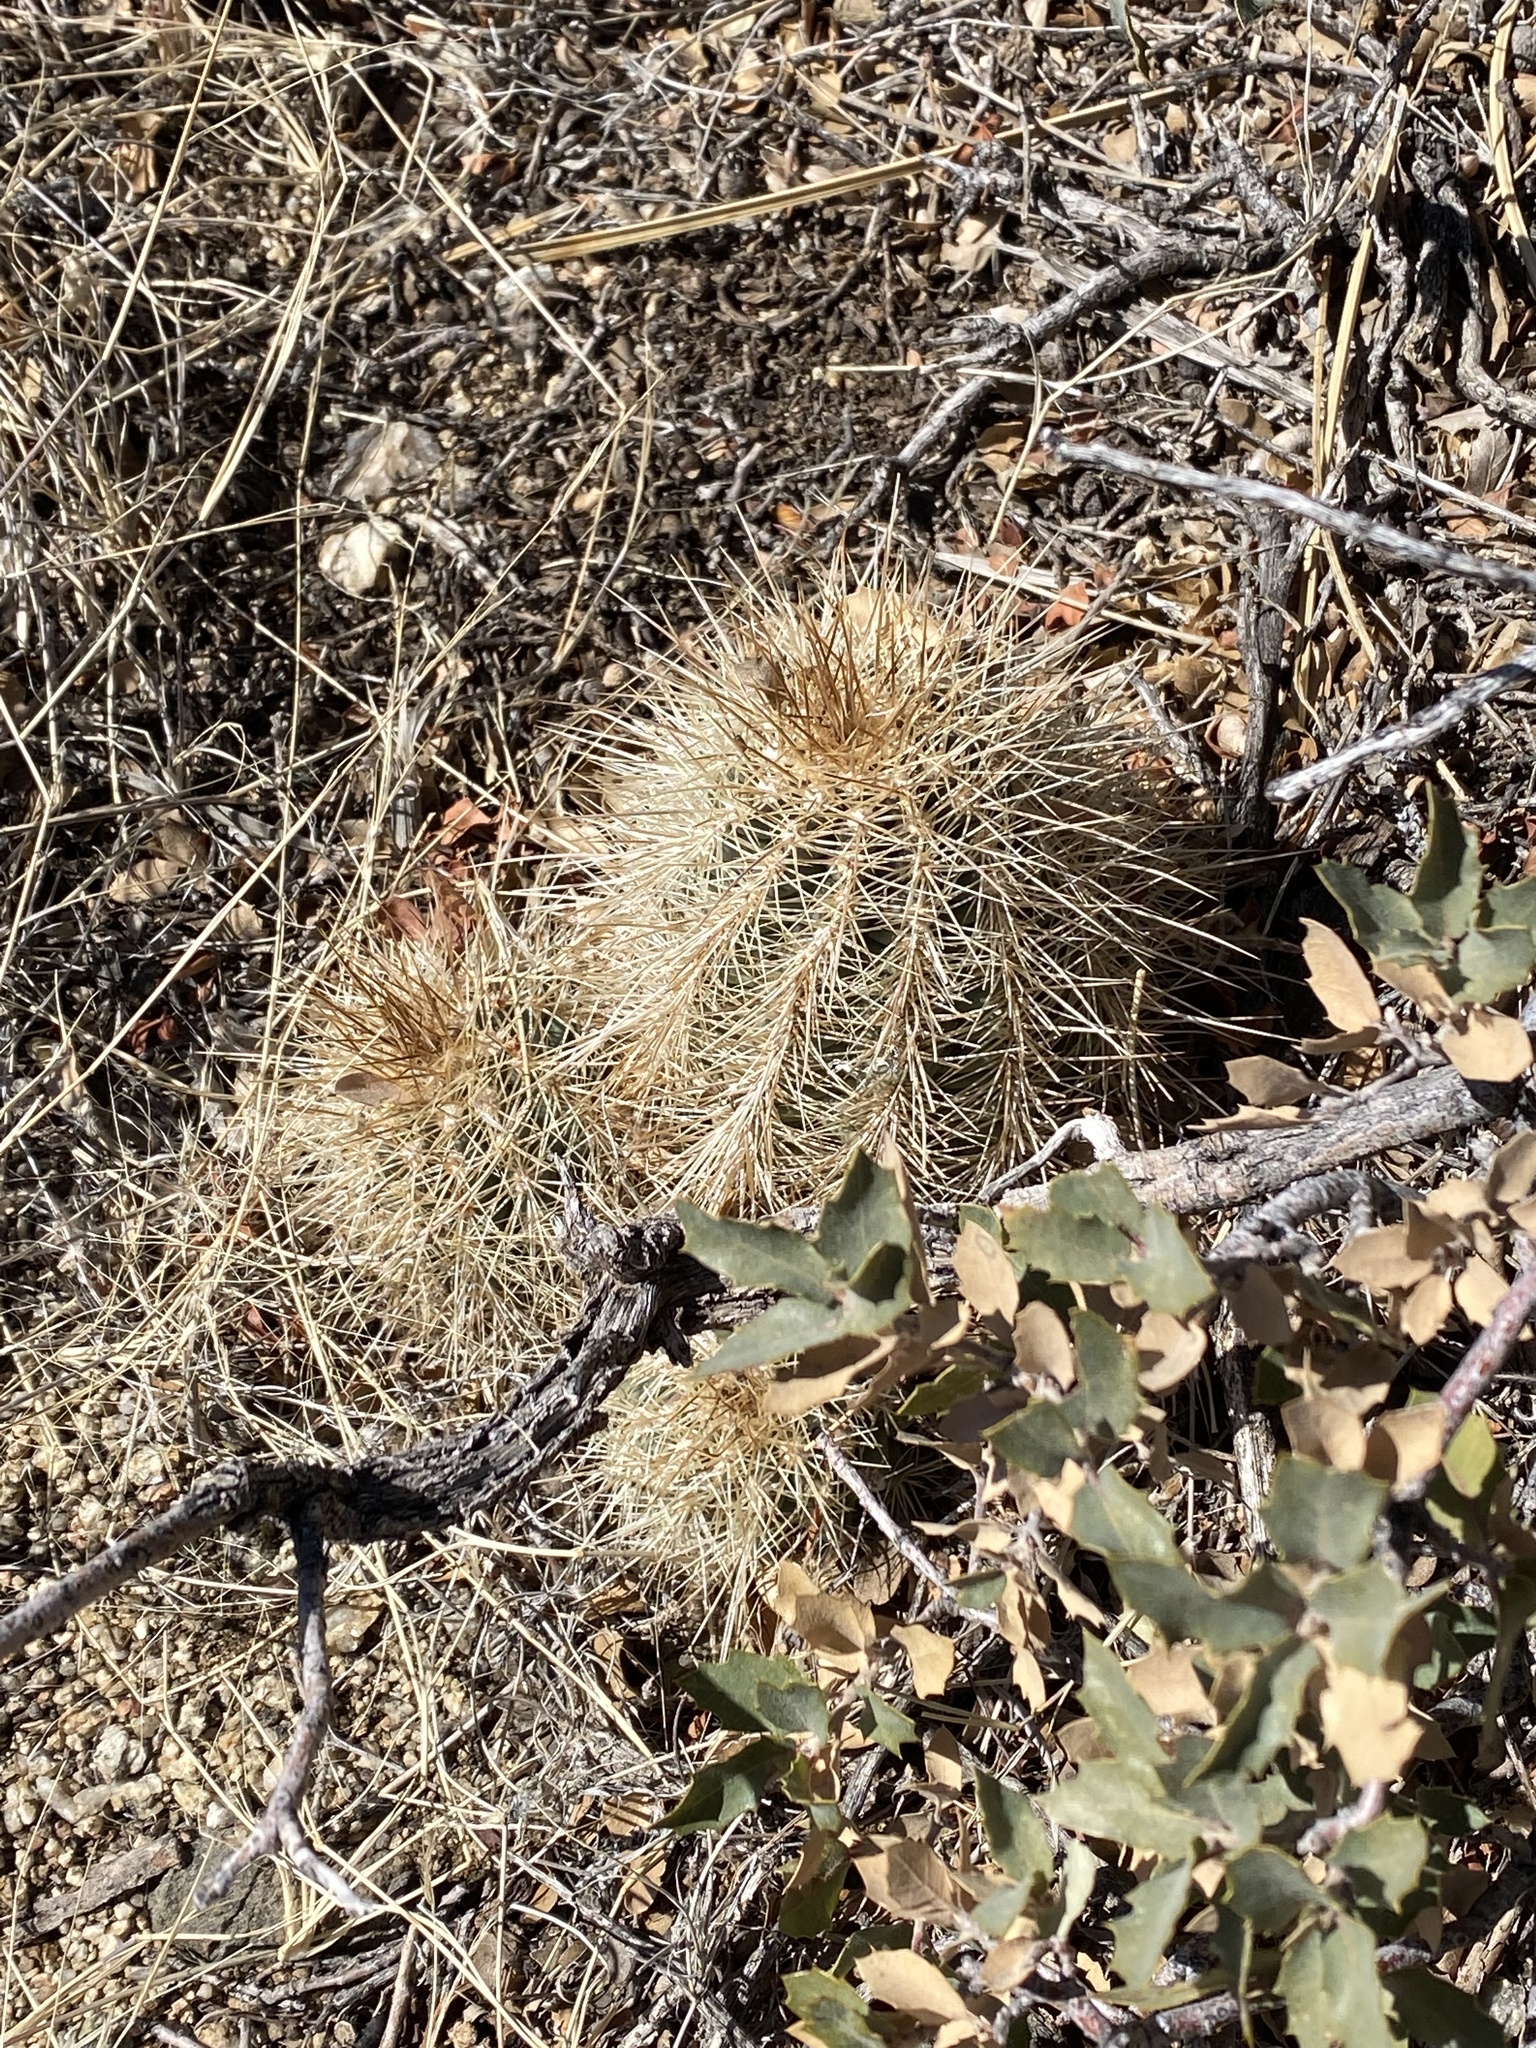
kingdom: Plantae
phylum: Tracheophyta
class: Magnoliopsida
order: Caryophyllales
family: Cactaceae
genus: Echinocereus
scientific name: Echinocereus coccineus
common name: Scarlet hedgehog cactus
